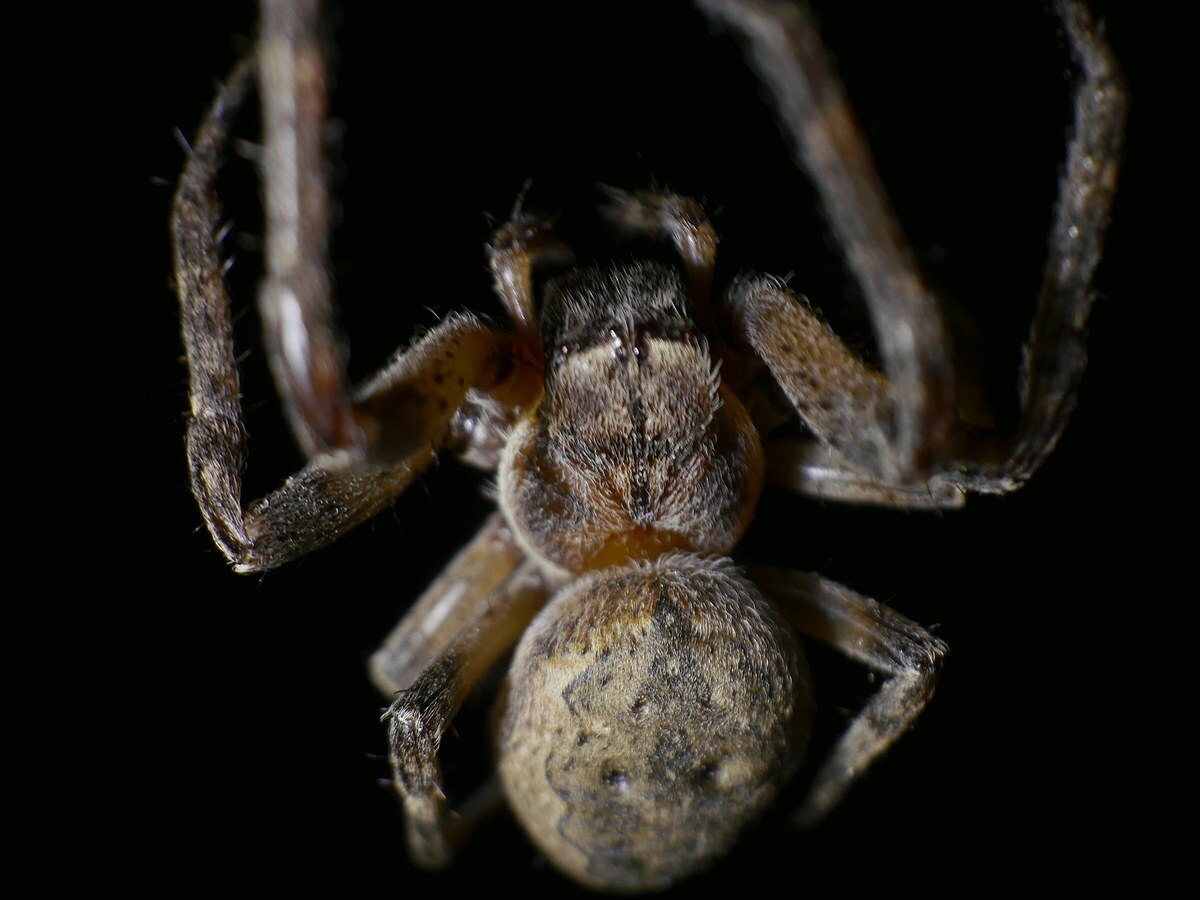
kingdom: Animalia
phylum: Arthropoda
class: Arachnida
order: Araneae
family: Araneidae
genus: Larinioides
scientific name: Larinioides ixobolus
